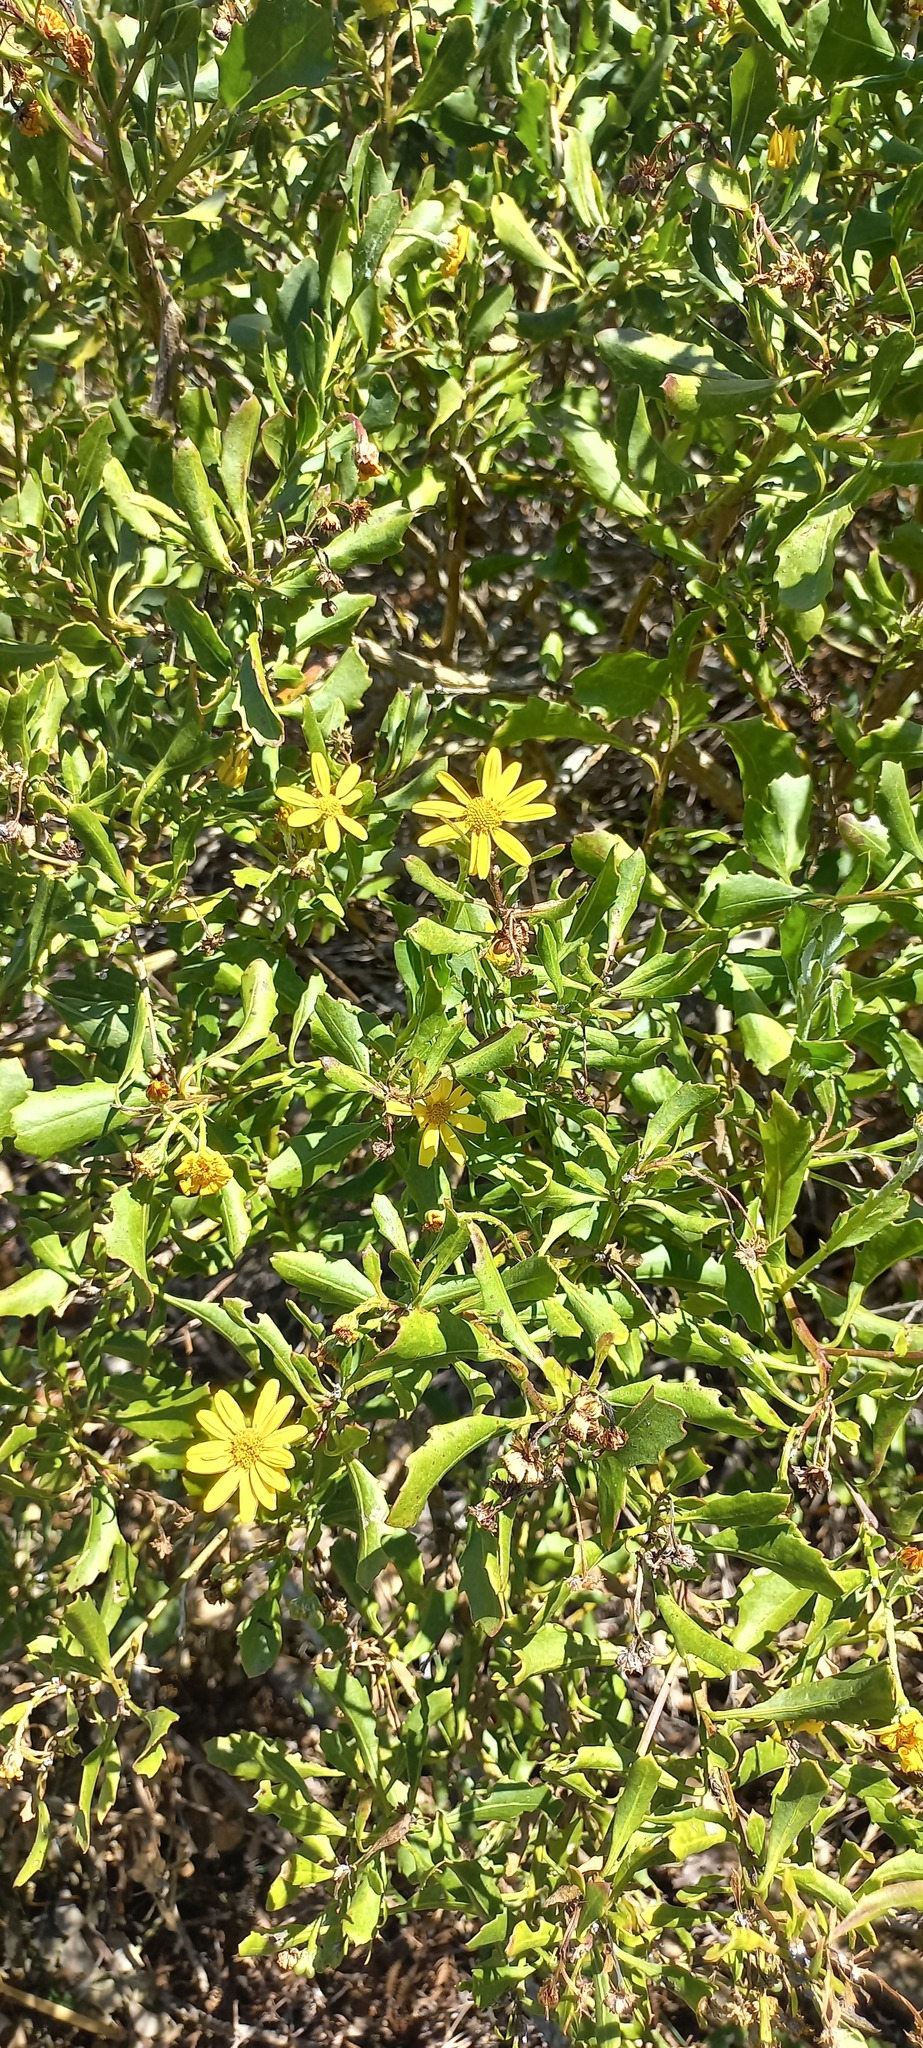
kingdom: Plantae
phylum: Tracheophyta
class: Magnoliopsida
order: Asterales
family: Asteraceae
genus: Osteospermum
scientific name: Osteospermum moniliferum
